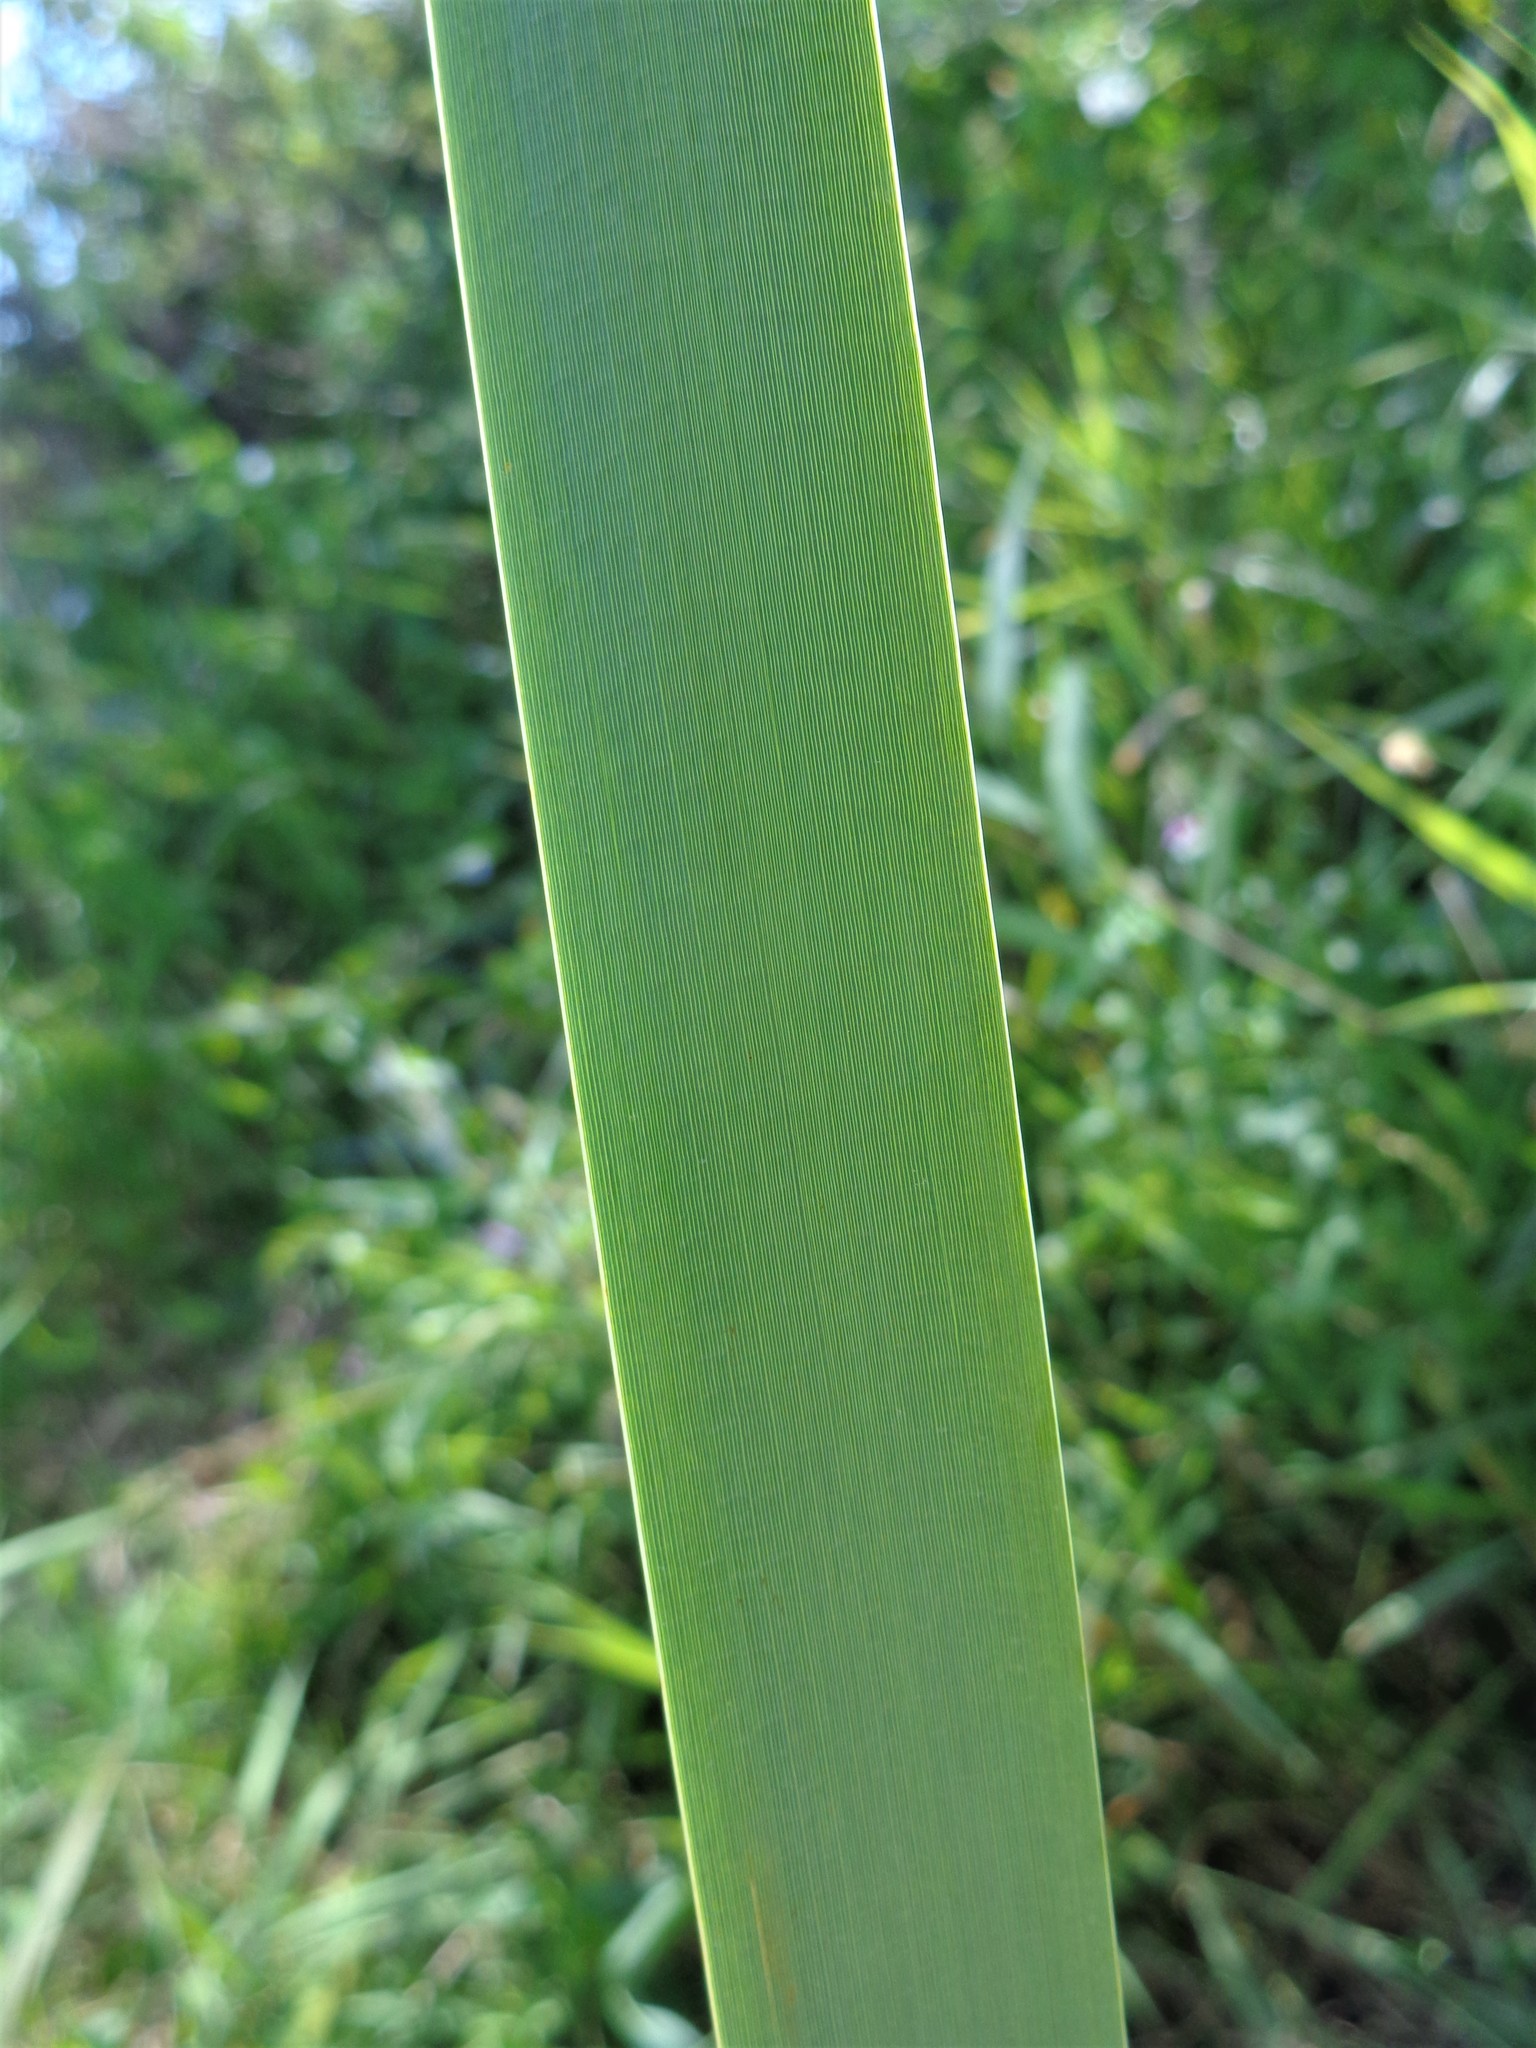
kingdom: Plantae
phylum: Tracheophyta
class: Liliopsida
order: Poales
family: Typhaceae
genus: Typha
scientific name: Typha latifolia
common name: Broadleaf cattail
